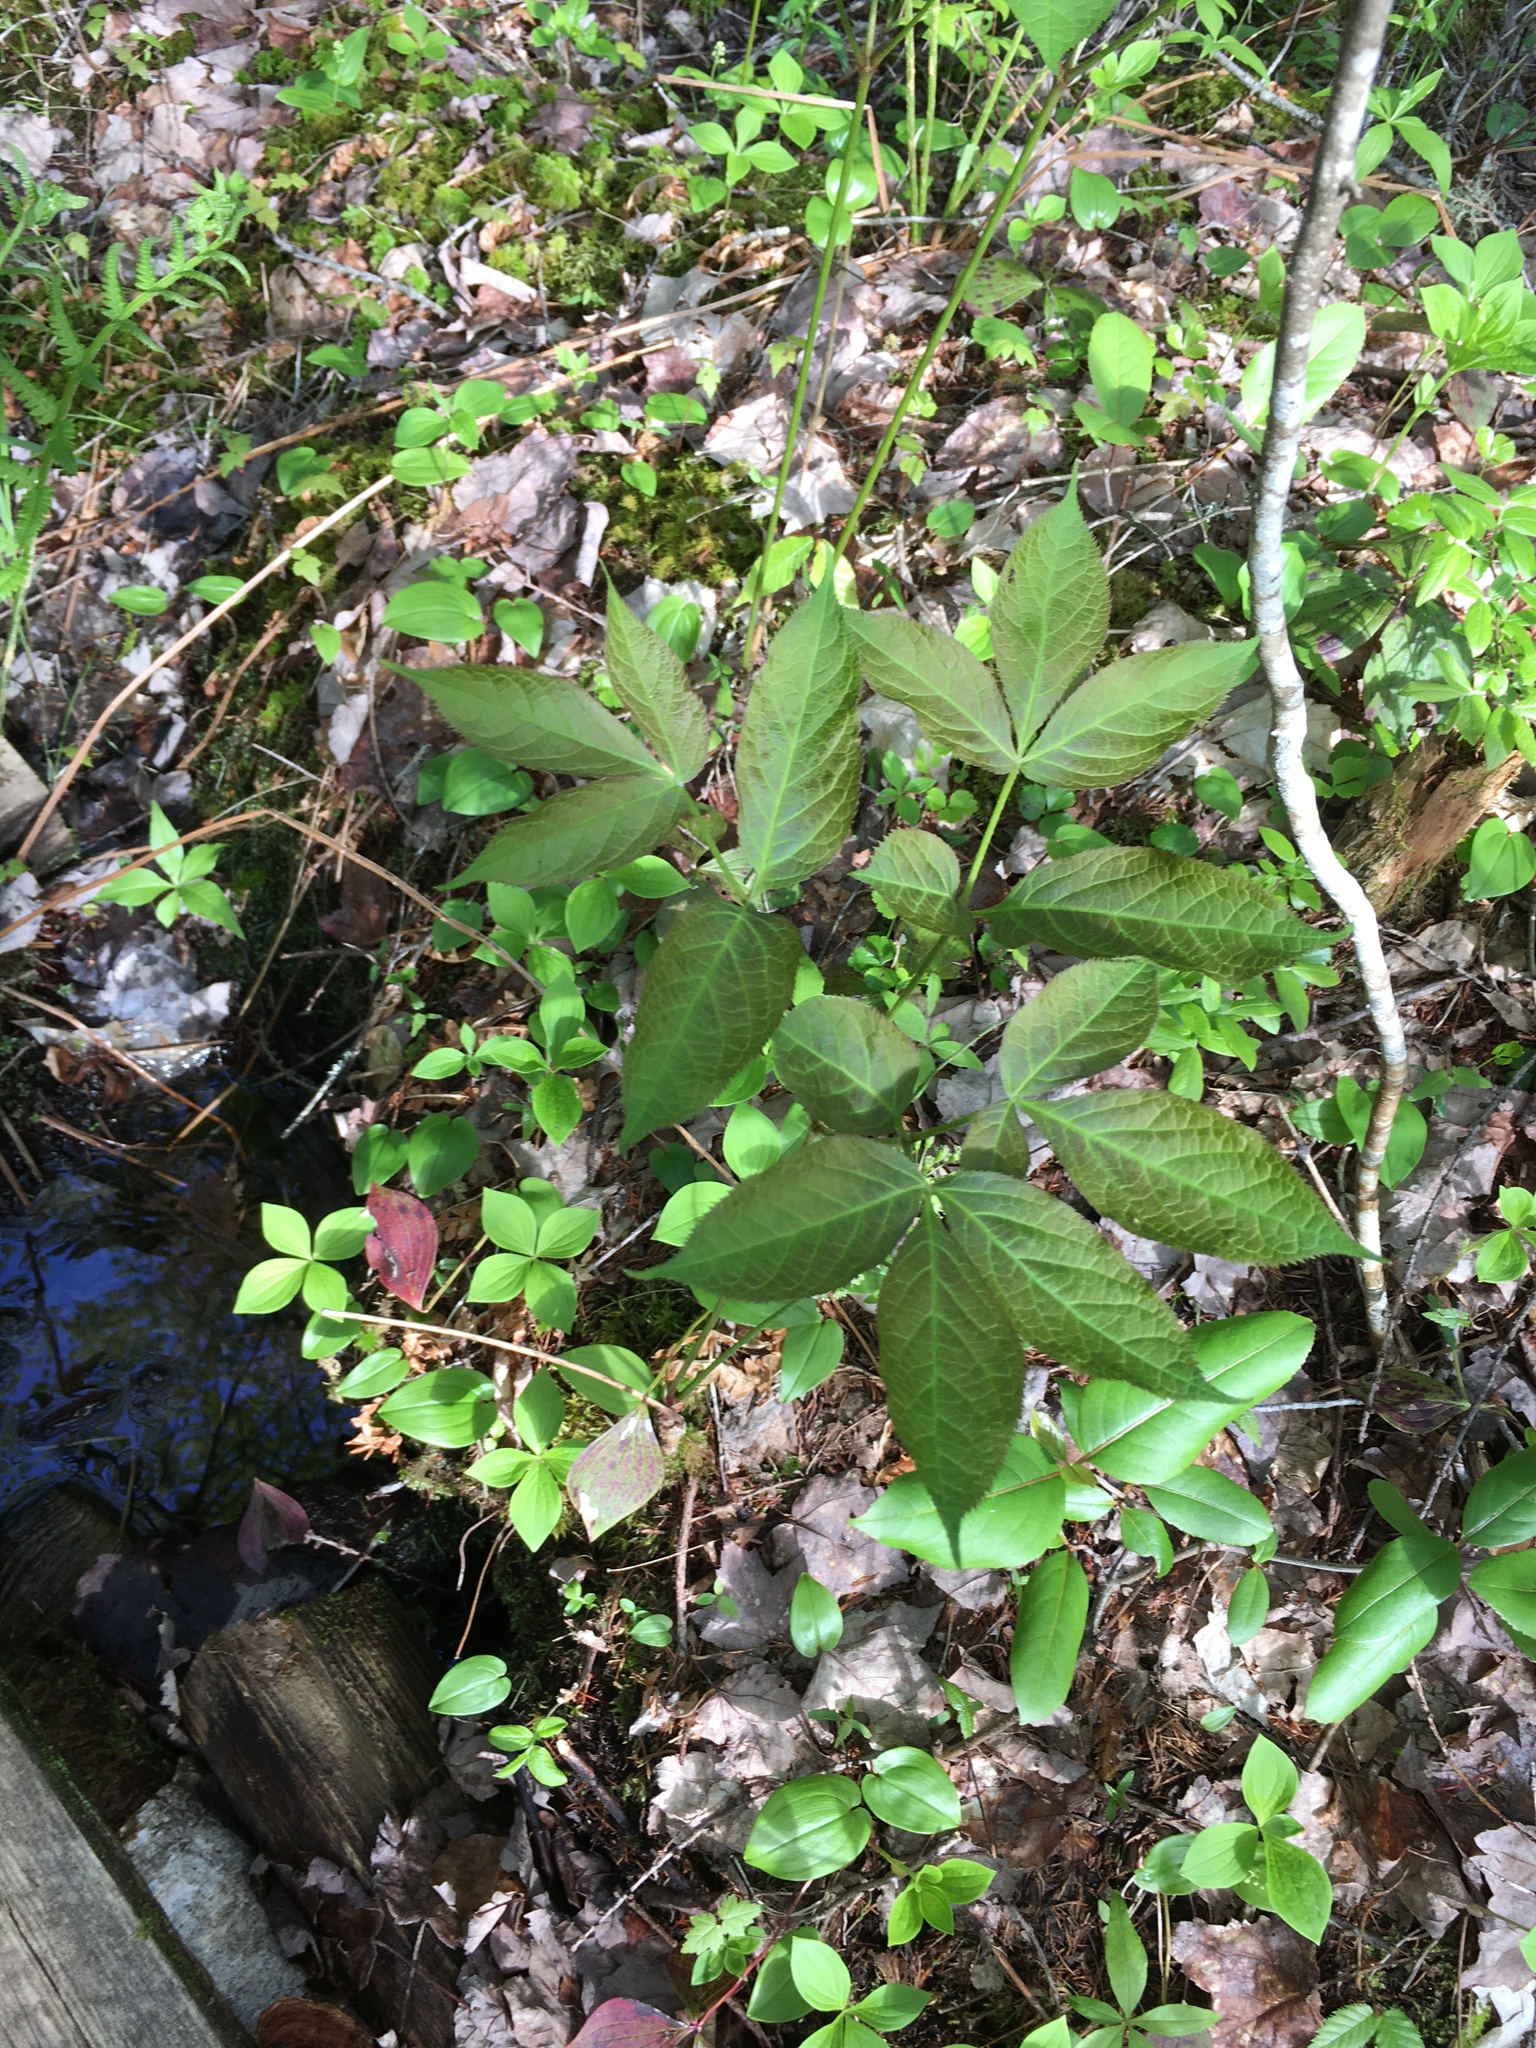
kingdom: Plantae
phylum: Tracheophyta
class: Magnoliopsida
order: Apiales
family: Araliaceae
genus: Aralia
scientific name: Aralia nudicaulis
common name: Wild sarsaparilla
